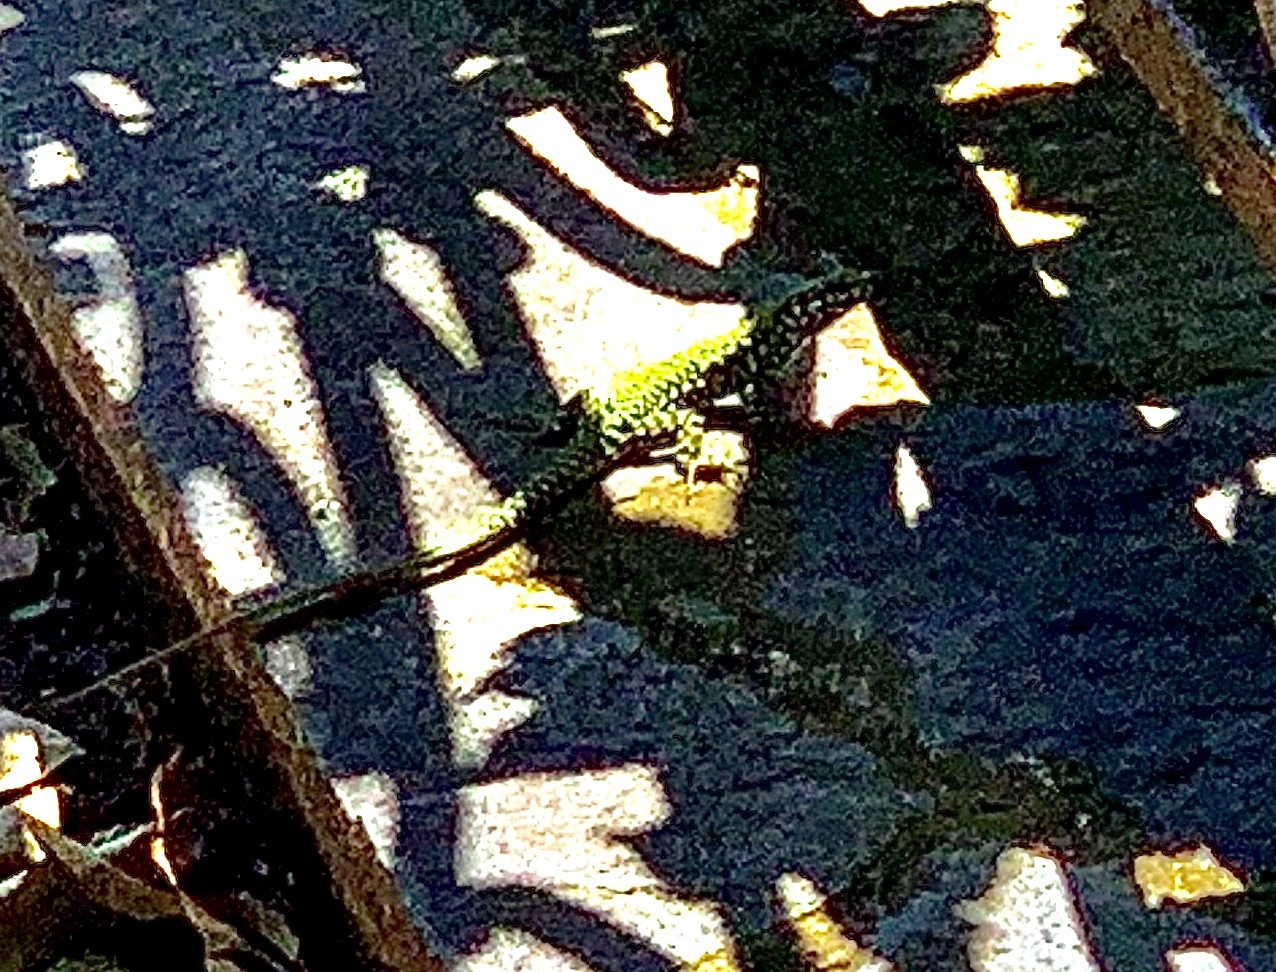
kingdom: Animalia
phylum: Chordata
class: Squamata
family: Lacertidae
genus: Podarcis
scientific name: Podarcis muralis
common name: Common wall lizard
